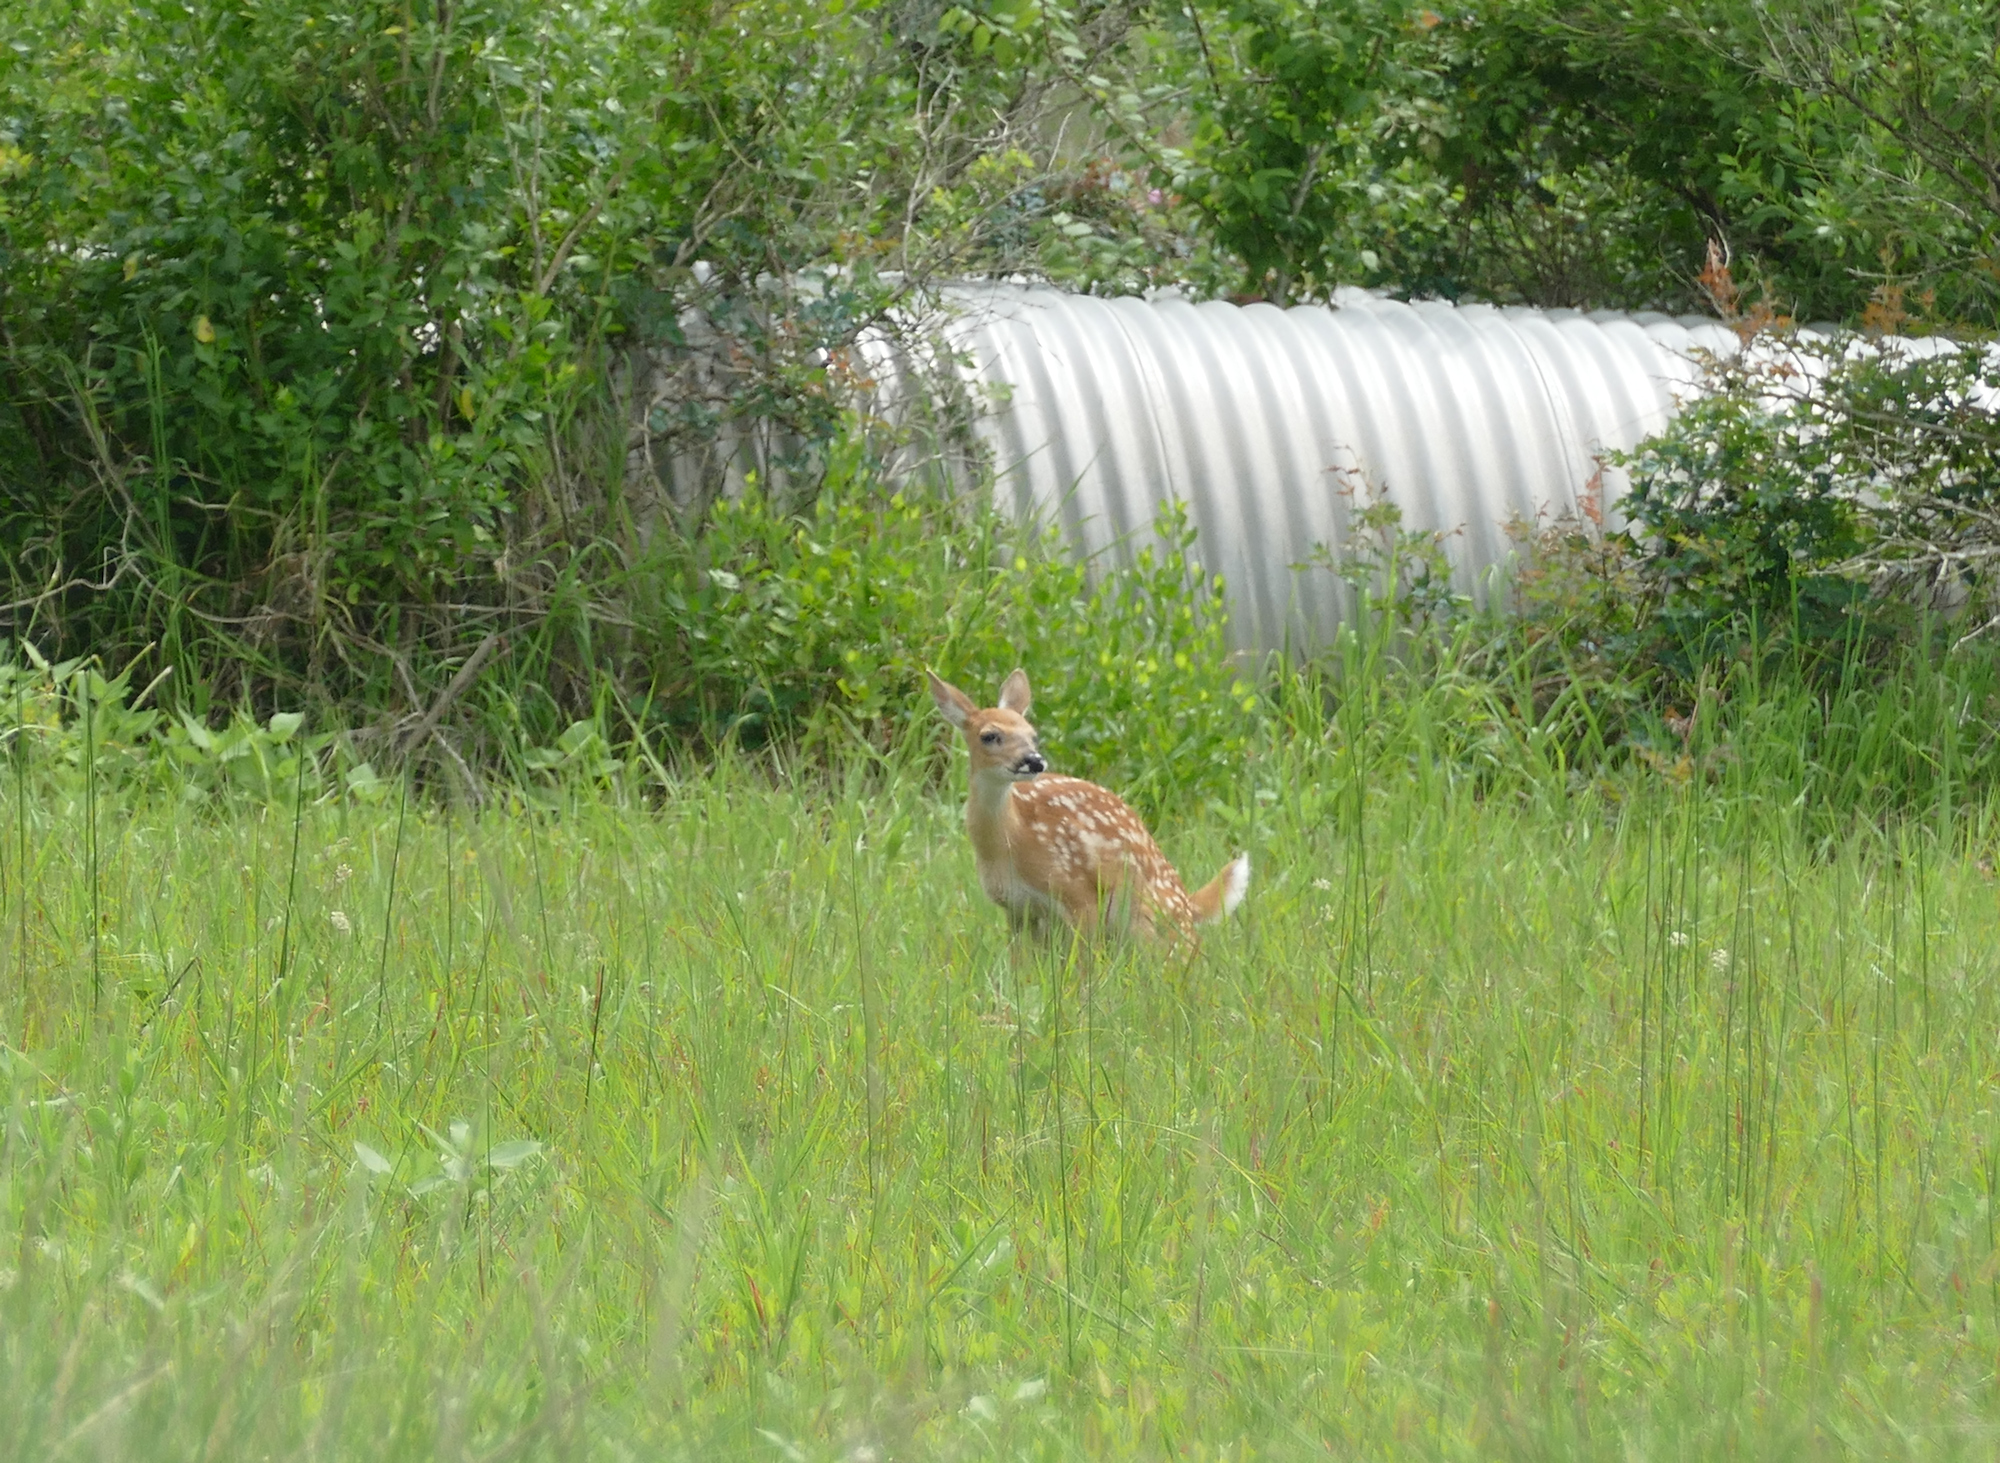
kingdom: Animalia
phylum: Chordata
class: Mammalia
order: Artiodactyla
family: Cervidae
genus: Odocoileus
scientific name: Odocoileus virginianus
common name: White-tailed deer
